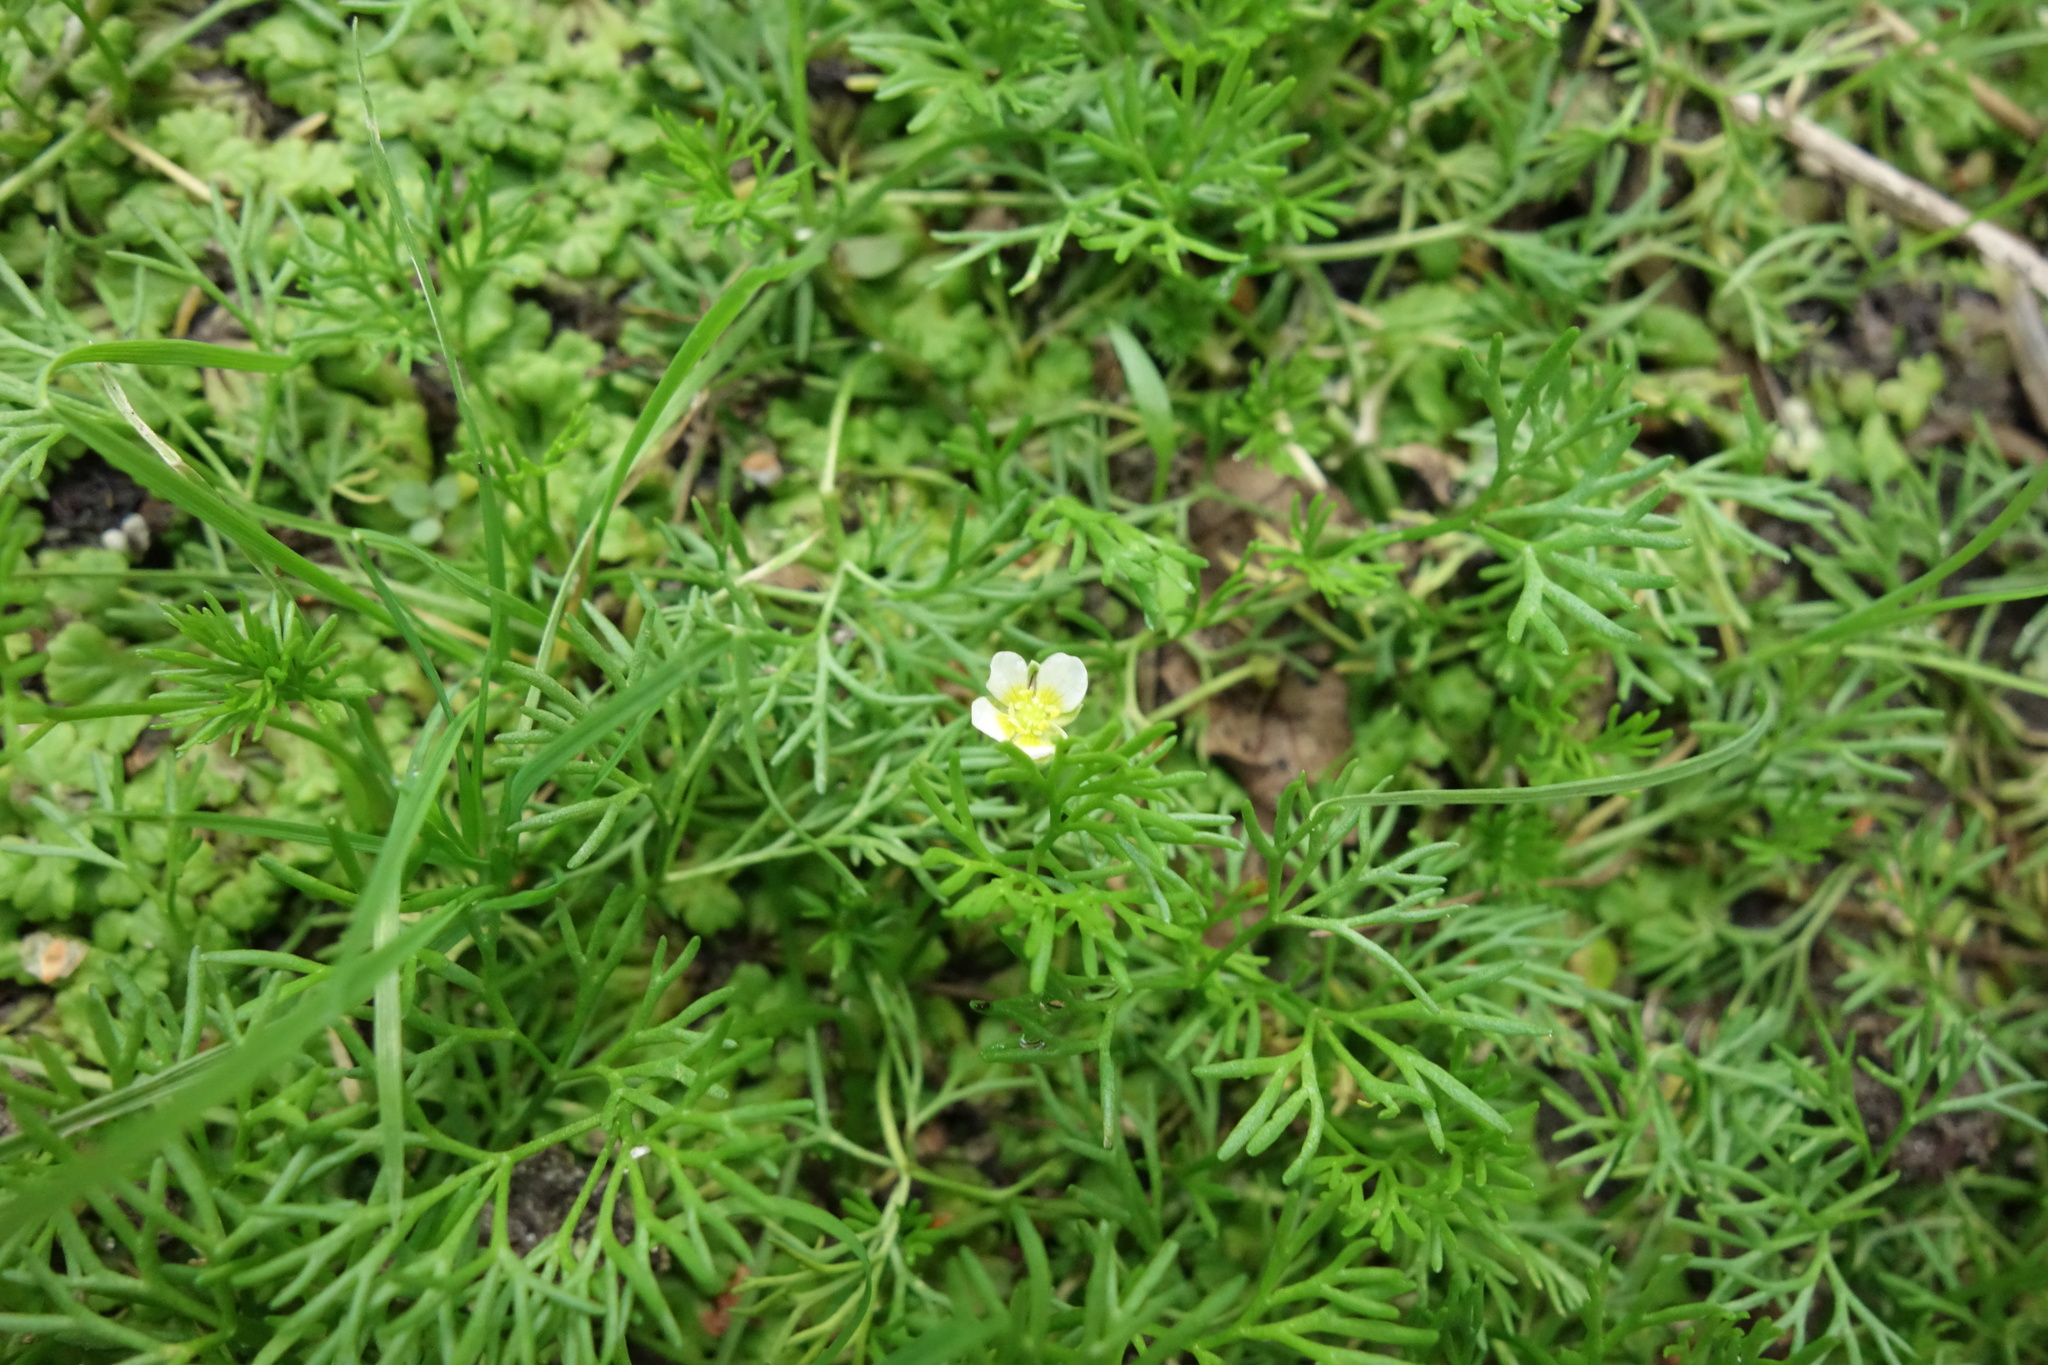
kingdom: Plantae
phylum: Tracheophyta
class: Magnoliopsida
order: Ranunculales
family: Ranunculaceae
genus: Ranunculus
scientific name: Ranunculus trichophyllus
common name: Thread-leaved water-crowfoot
